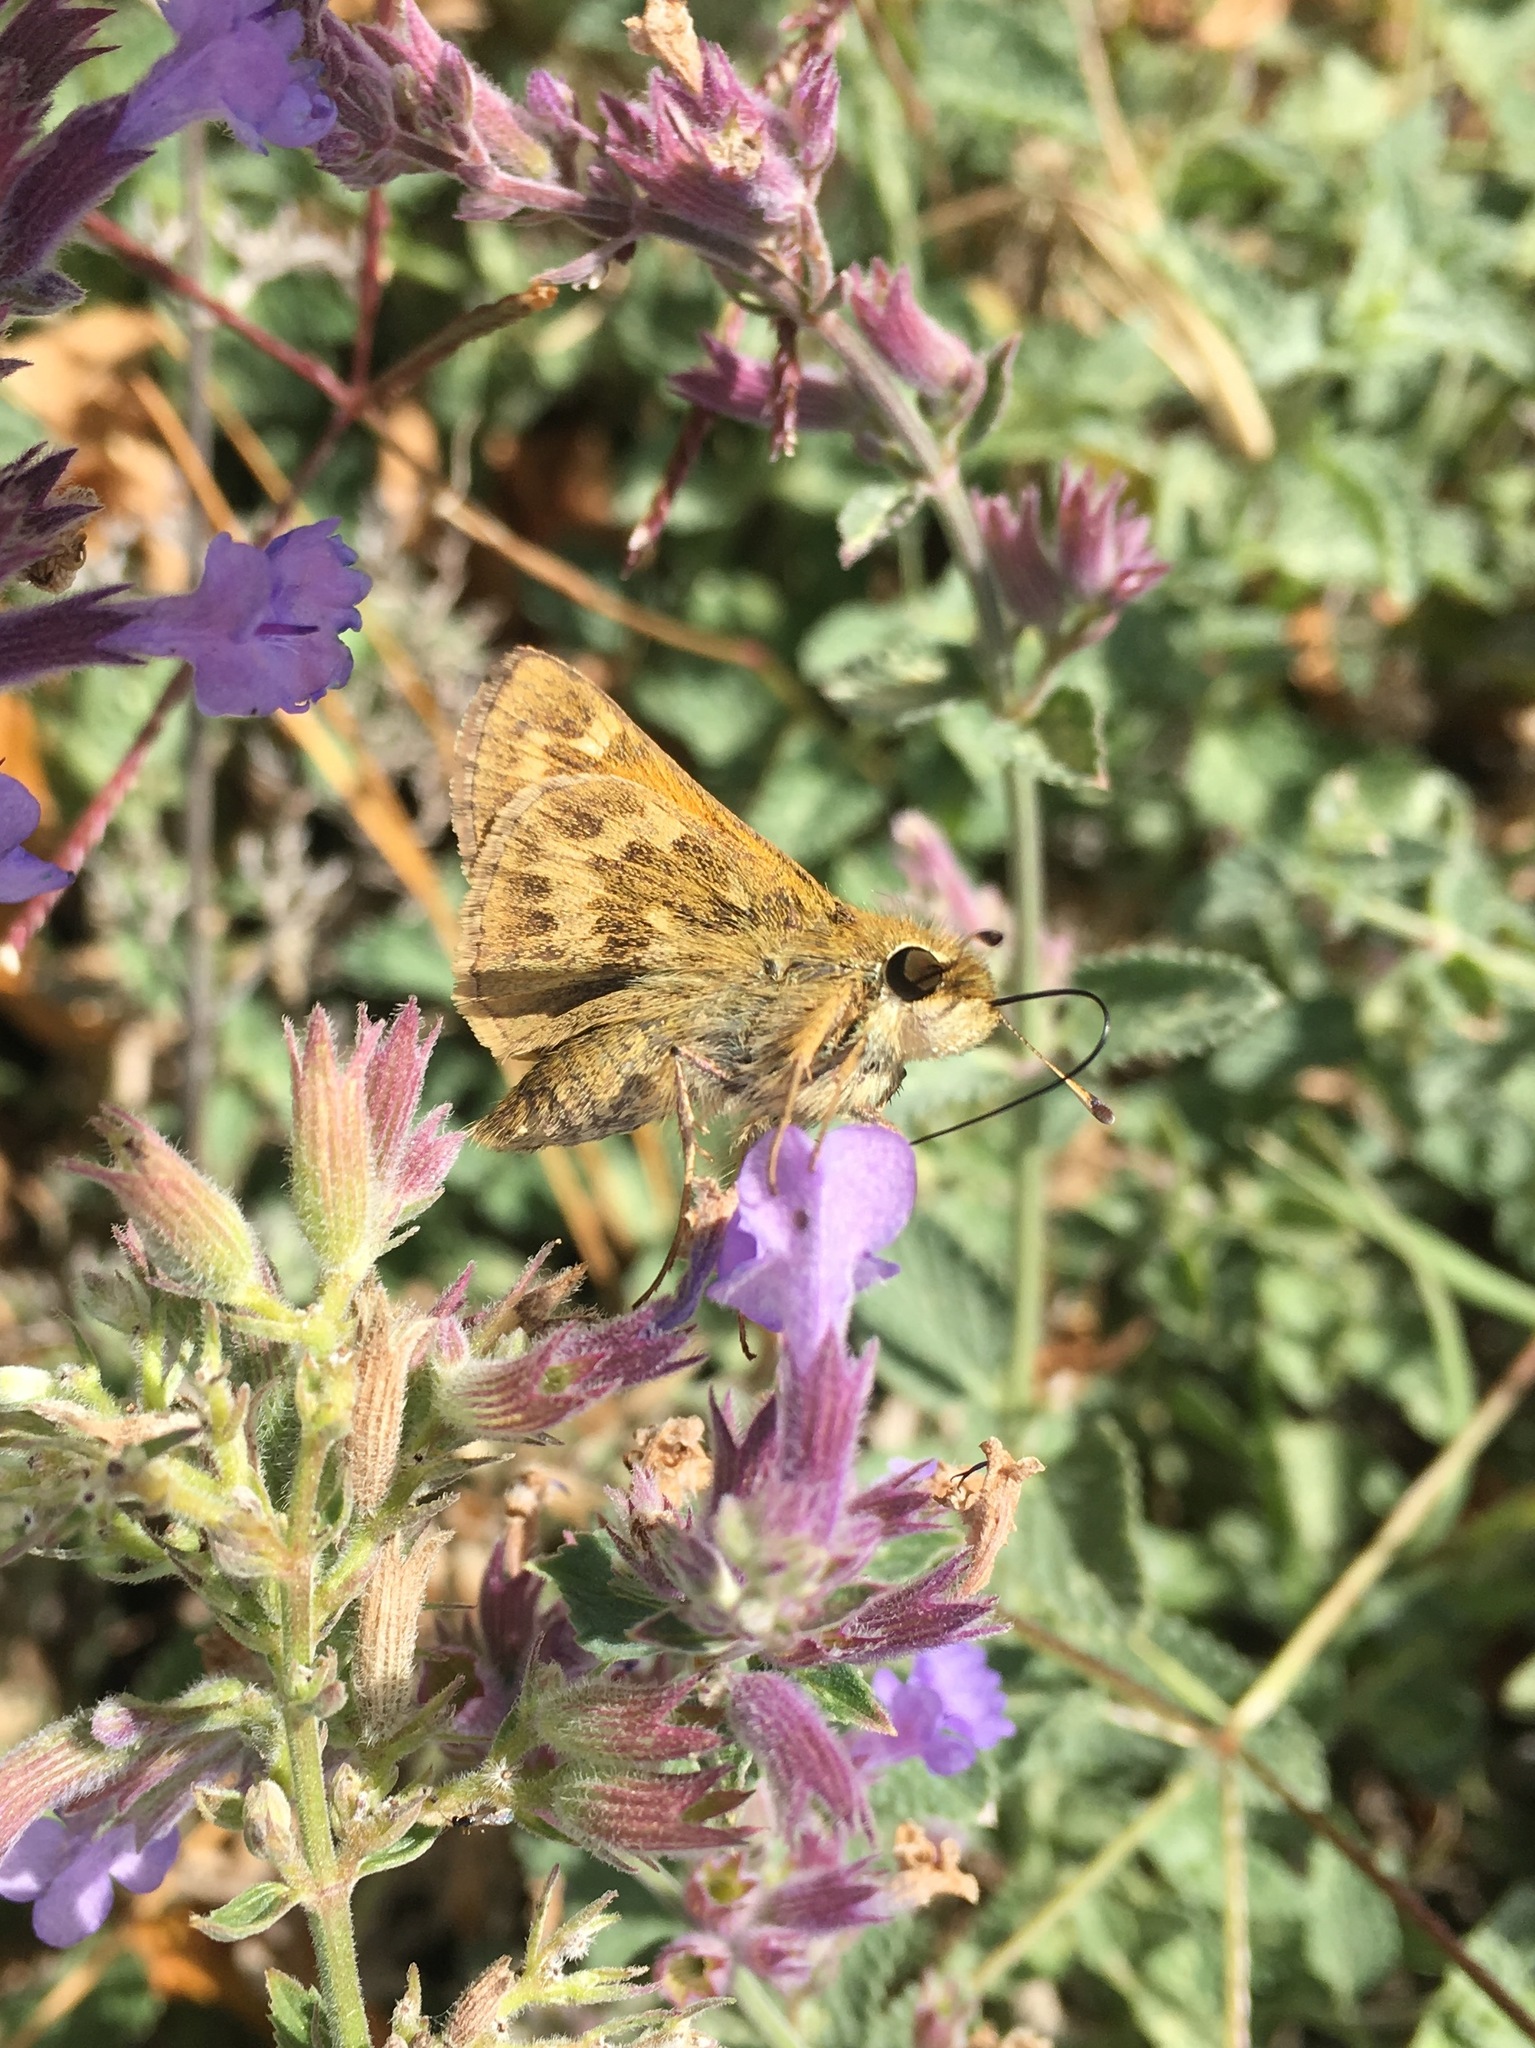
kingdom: Animalia
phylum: Arthropoda
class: Insecta
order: Lepidoptera
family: Hesperiidae
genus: Atalopedes
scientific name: Atalopedes
